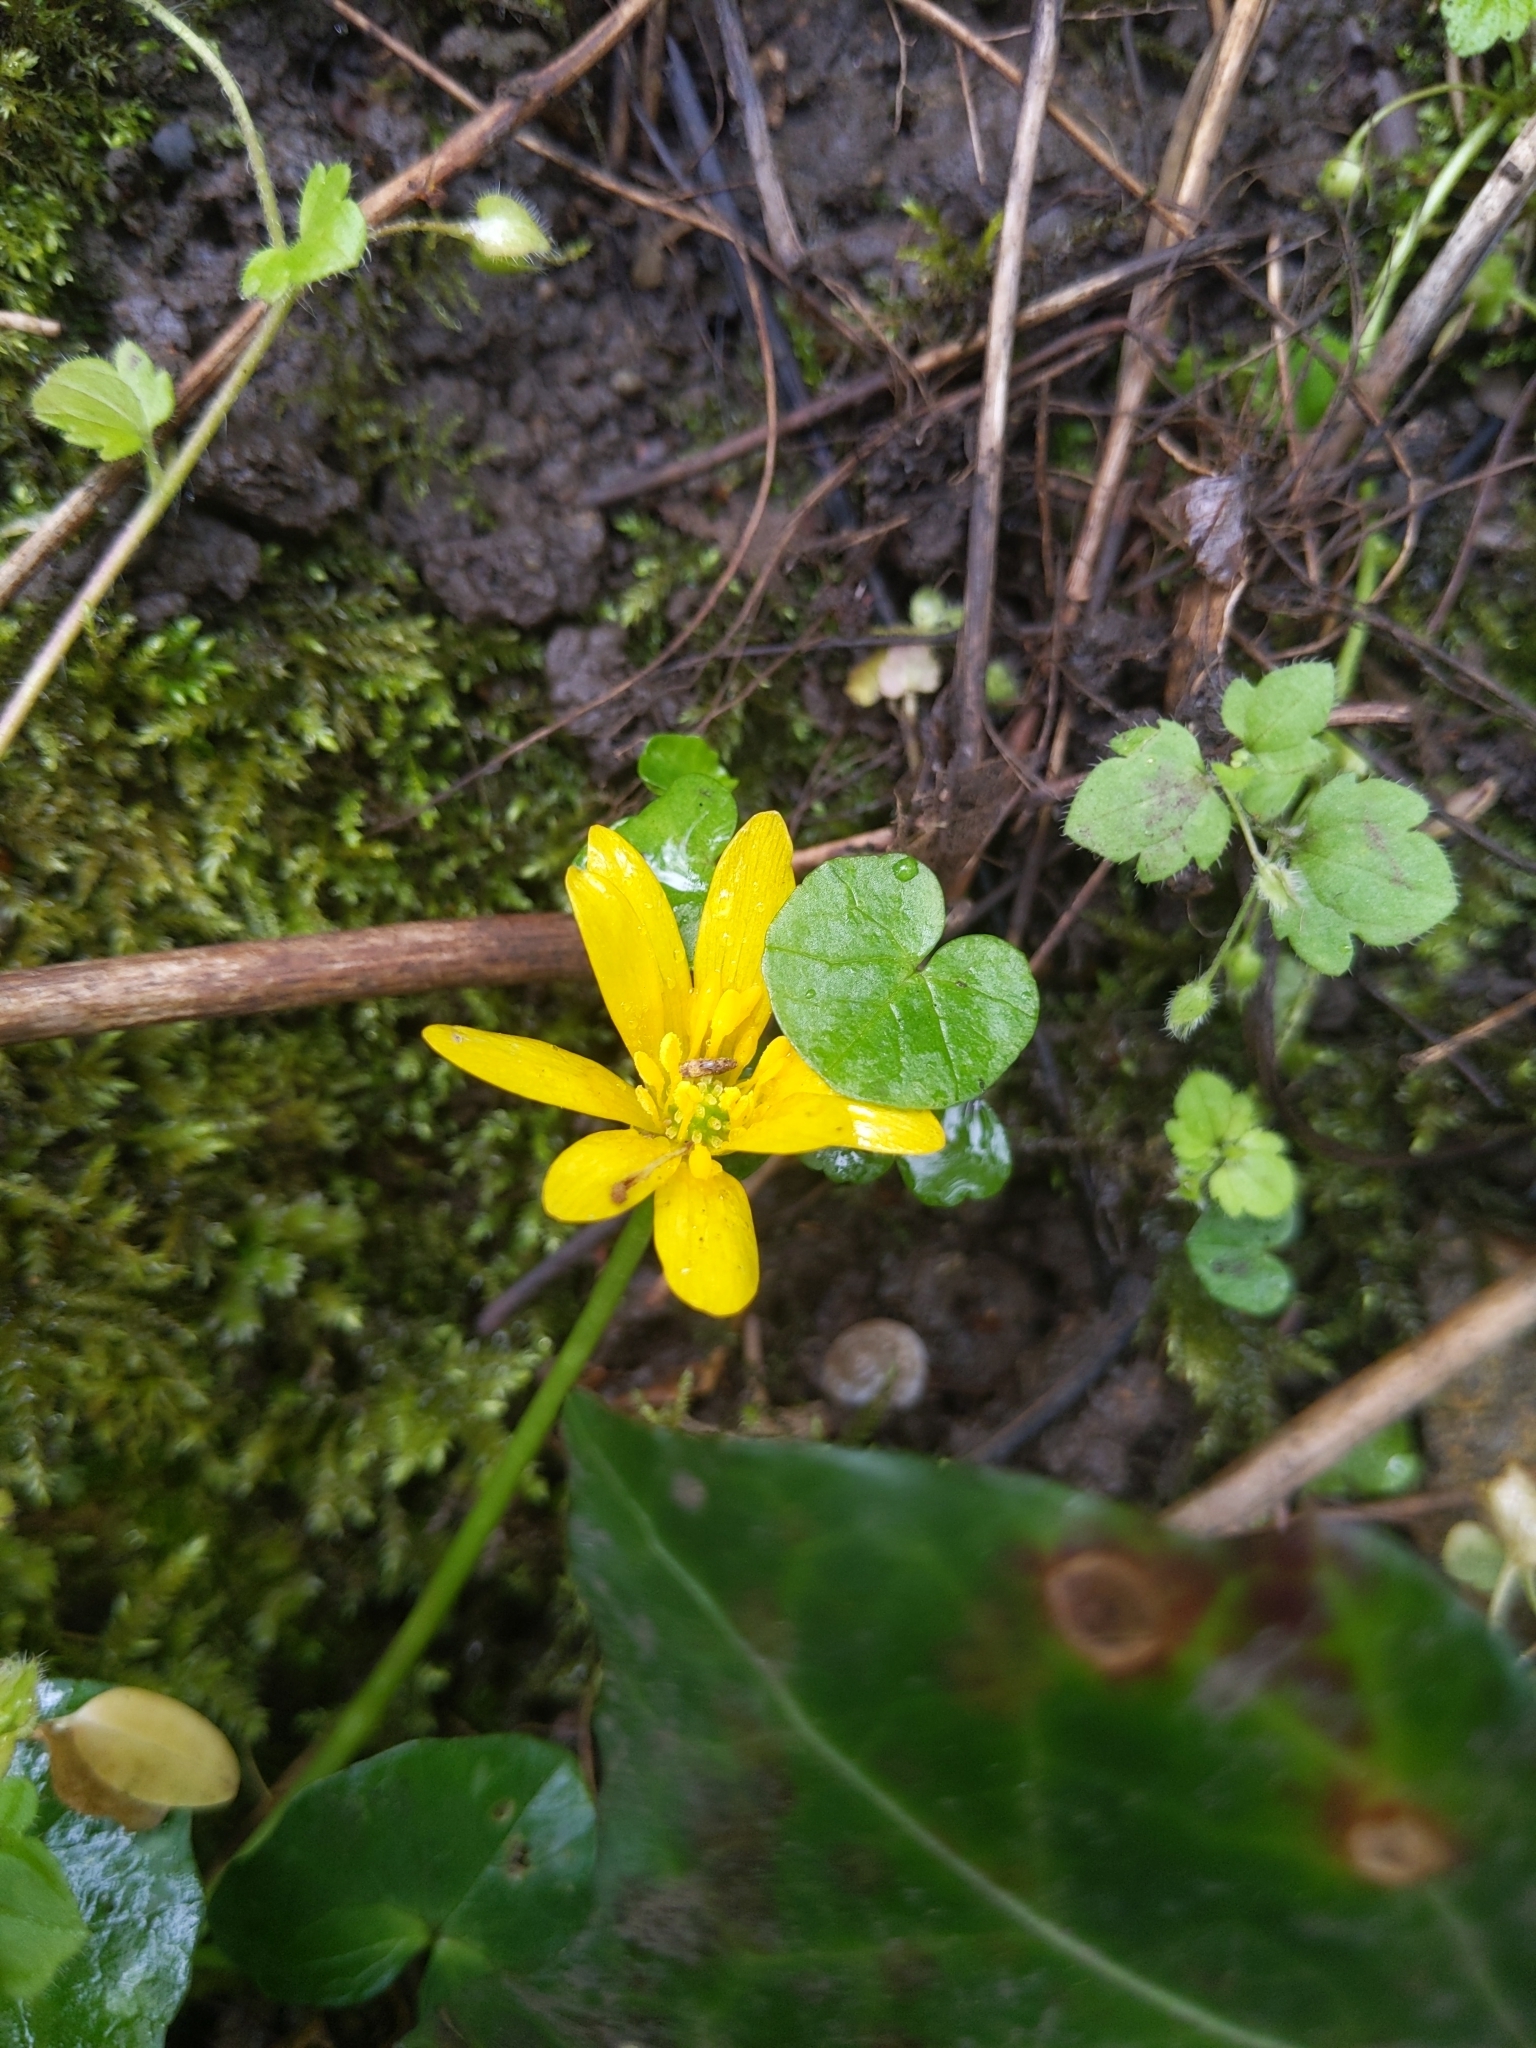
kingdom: Plantae
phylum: Tracheophyta
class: Magnoliopsida
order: Ranunculales
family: Ranunculaceae
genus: Ficaria
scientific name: Ficaria verna
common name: Lesser celandine
